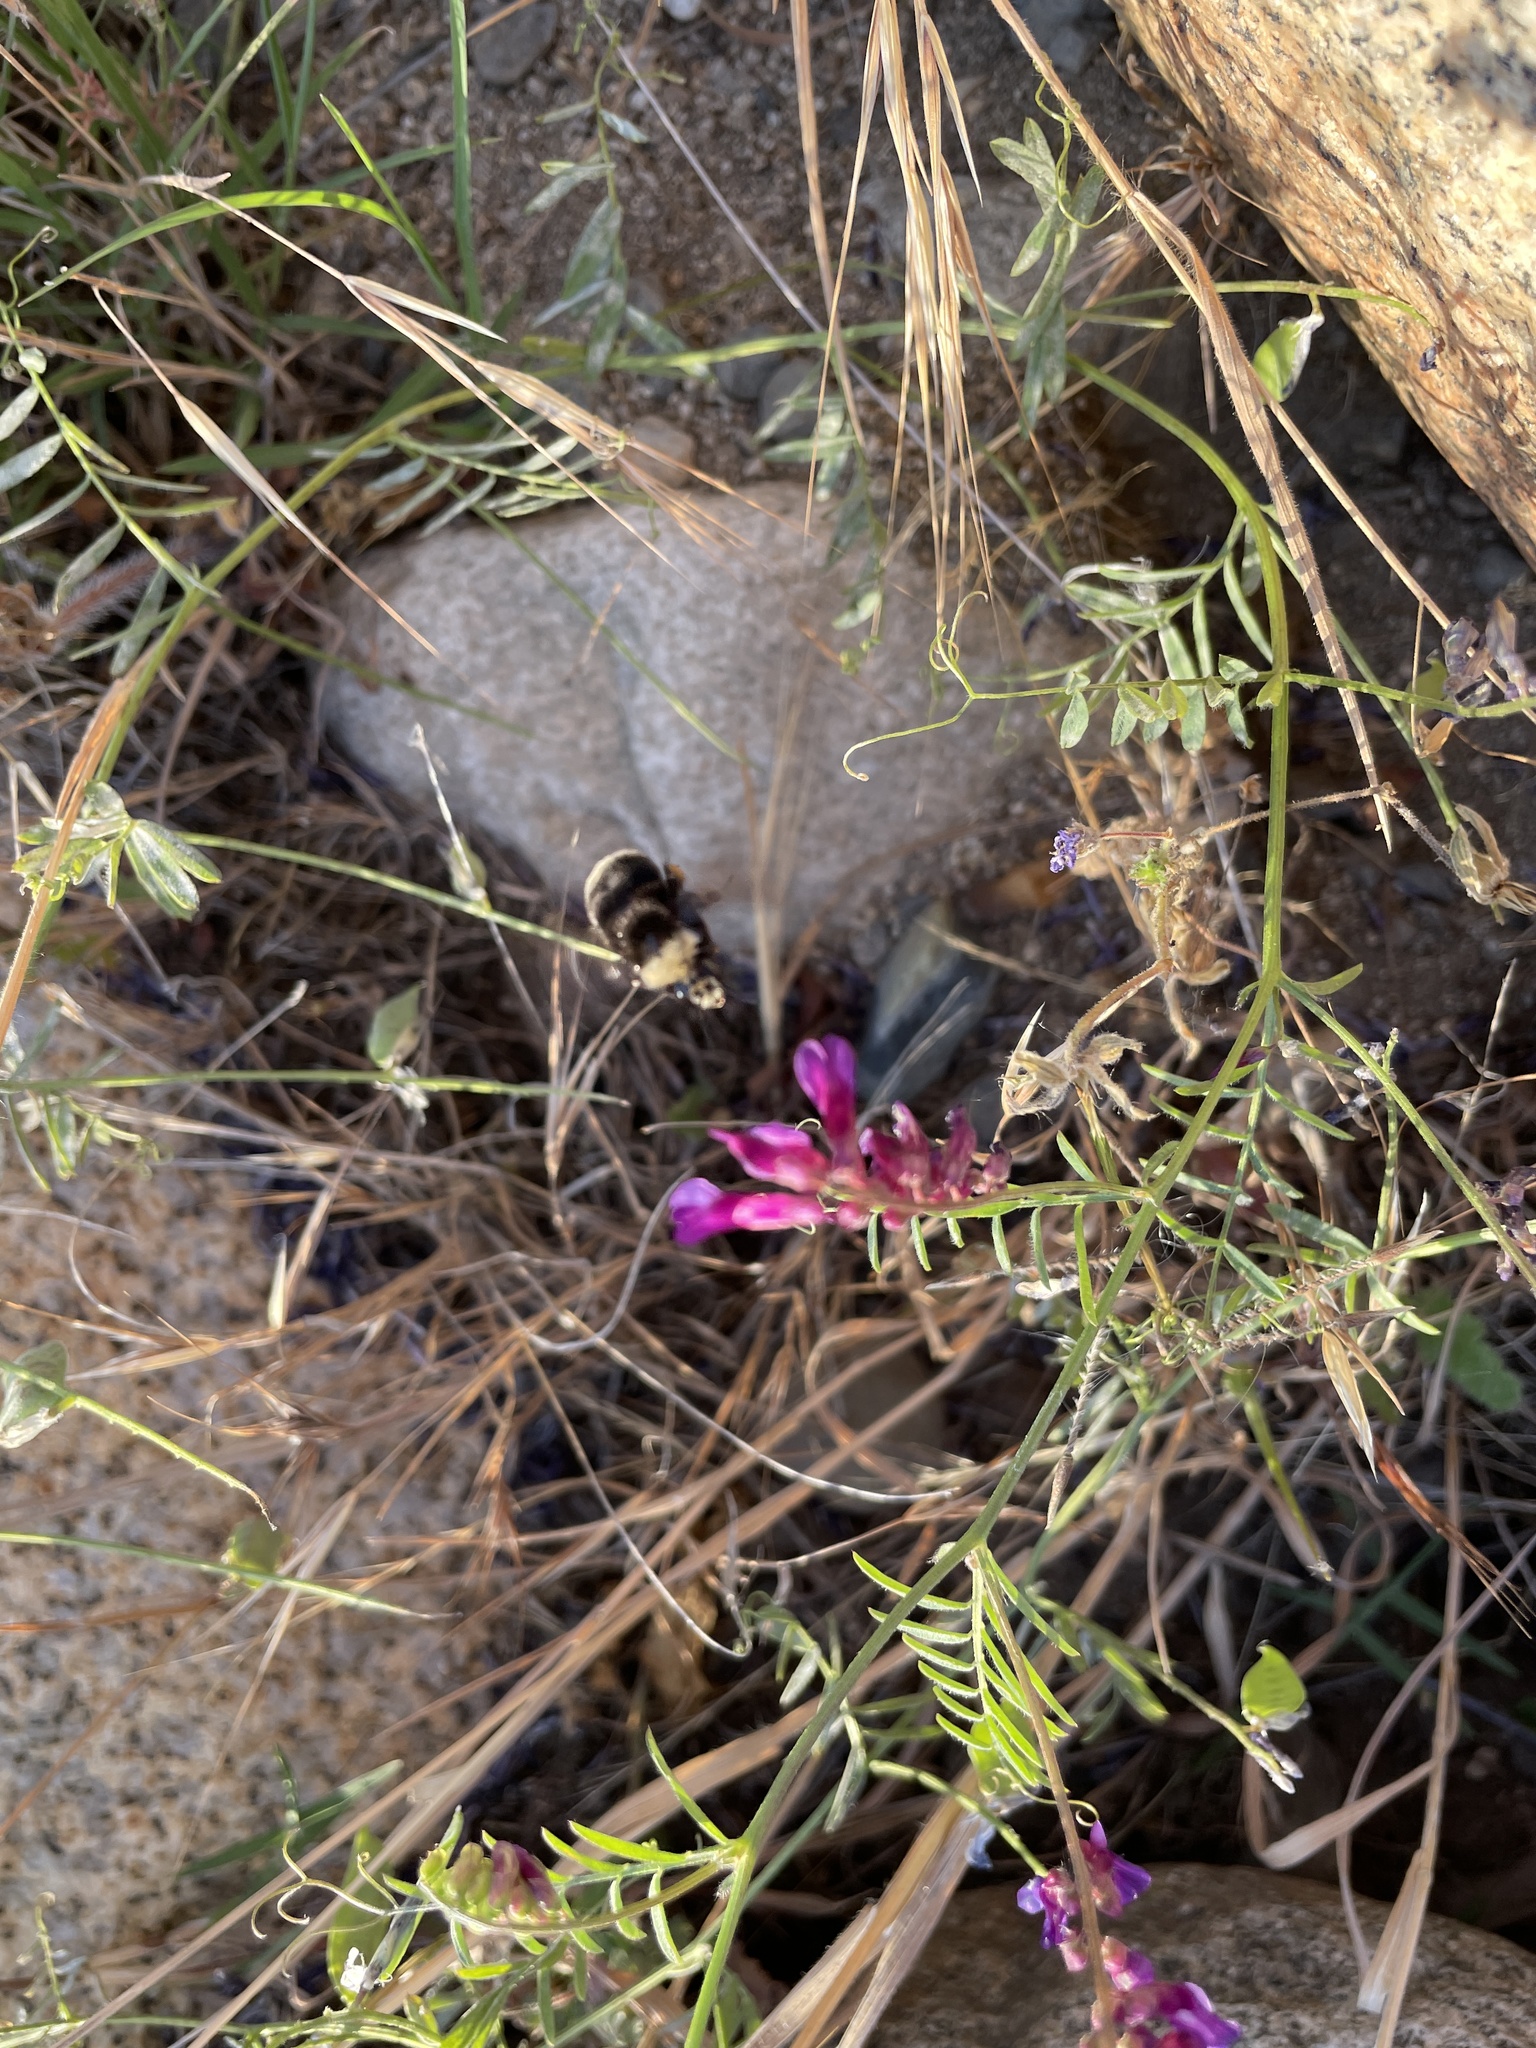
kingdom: Animalia
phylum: Arthropoda
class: Insecta
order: Hymenoptera
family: Apidae
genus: Bombus
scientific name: Bombus vosnesenskii
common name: Vosnesensky bumble bee
